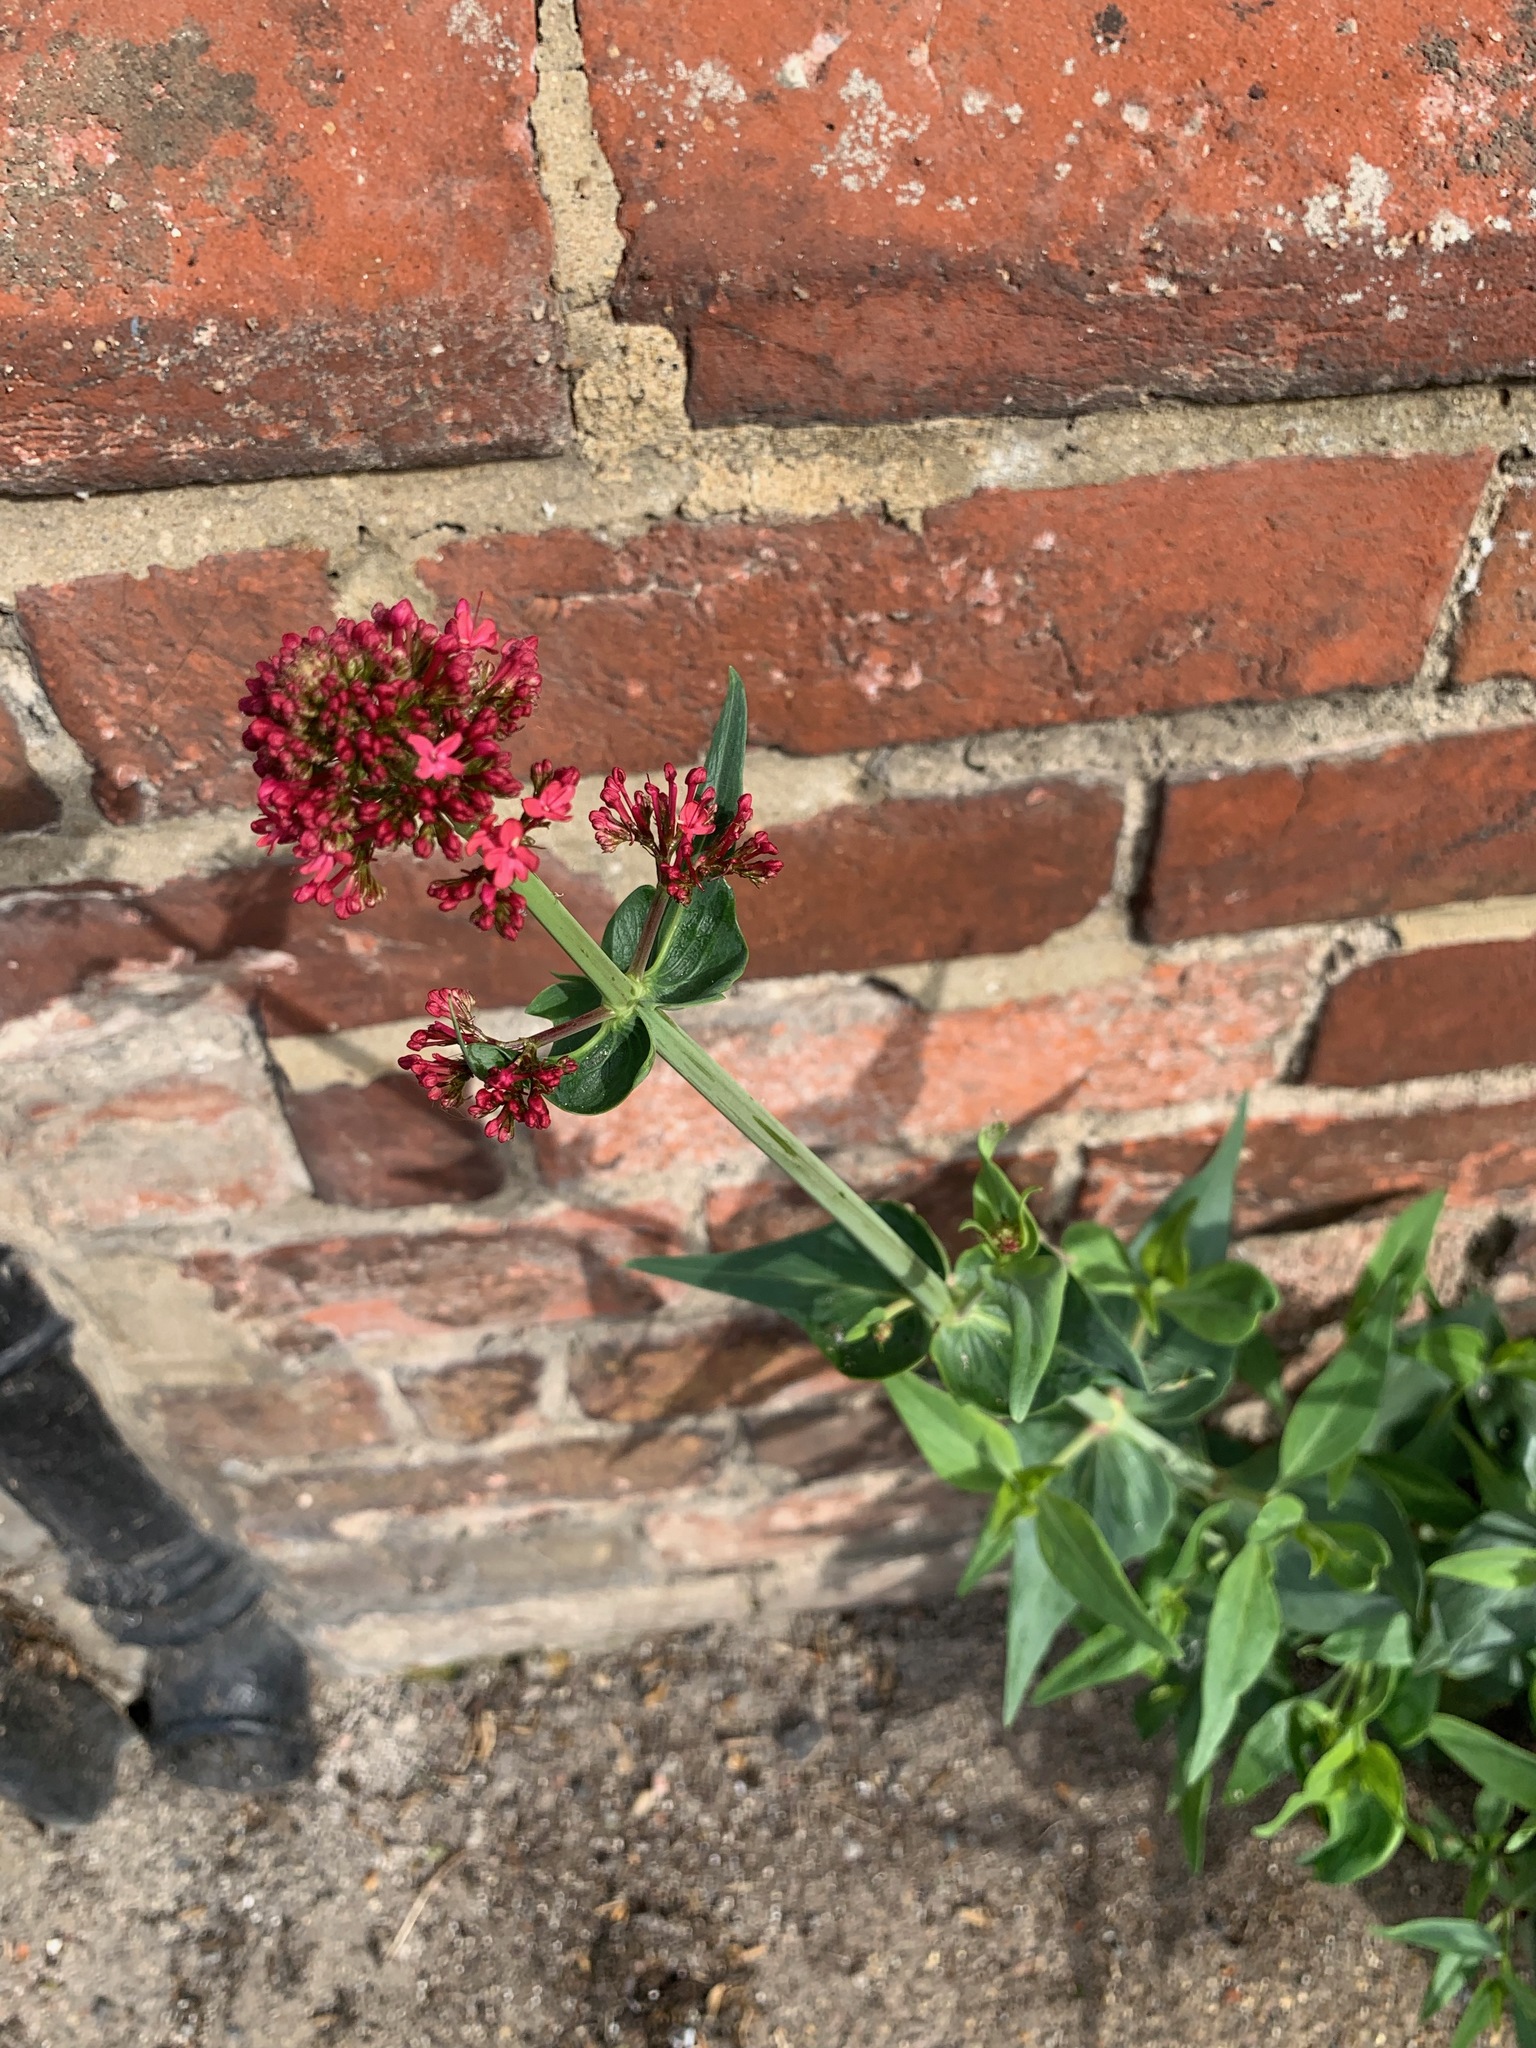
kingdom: Plantae
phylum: Tracheophyta
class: Magnoliopsida
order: Dipsacales
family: Caprifoliaceae
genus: Centranthus
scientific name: Centranthus ruber
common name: Red valerian
